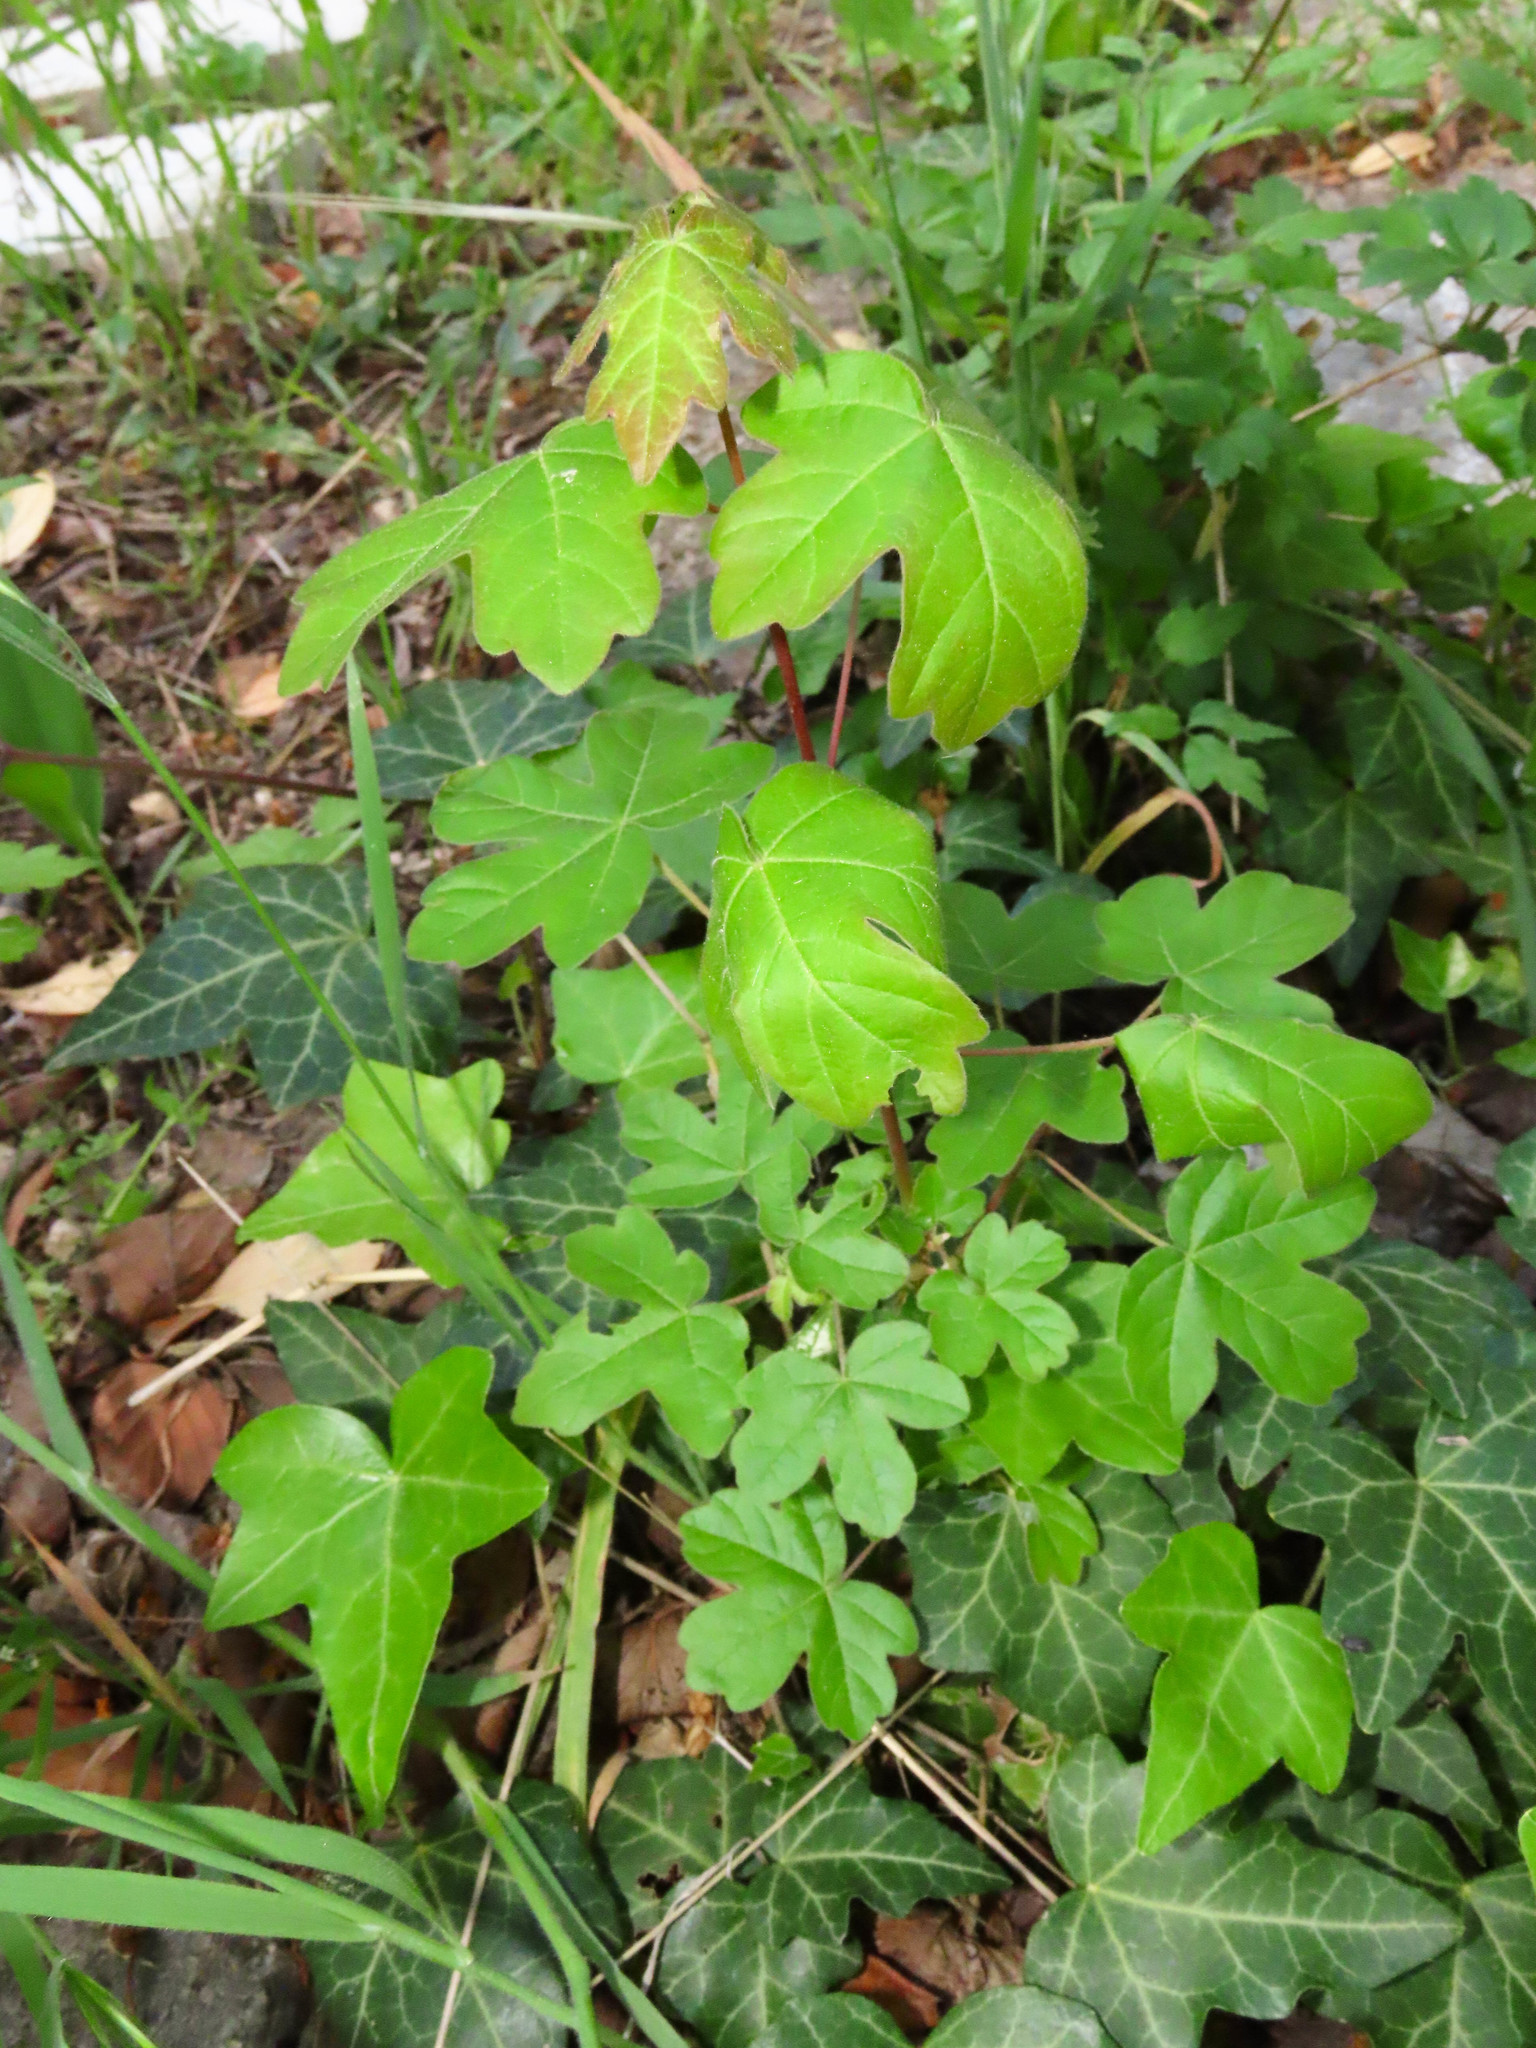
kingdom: Plantae
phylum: Tracheophyta
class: Magnoliopsida
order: Sapindales
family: Sapindaceae
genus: Acer
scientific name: Acer campestre
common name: Field maple
